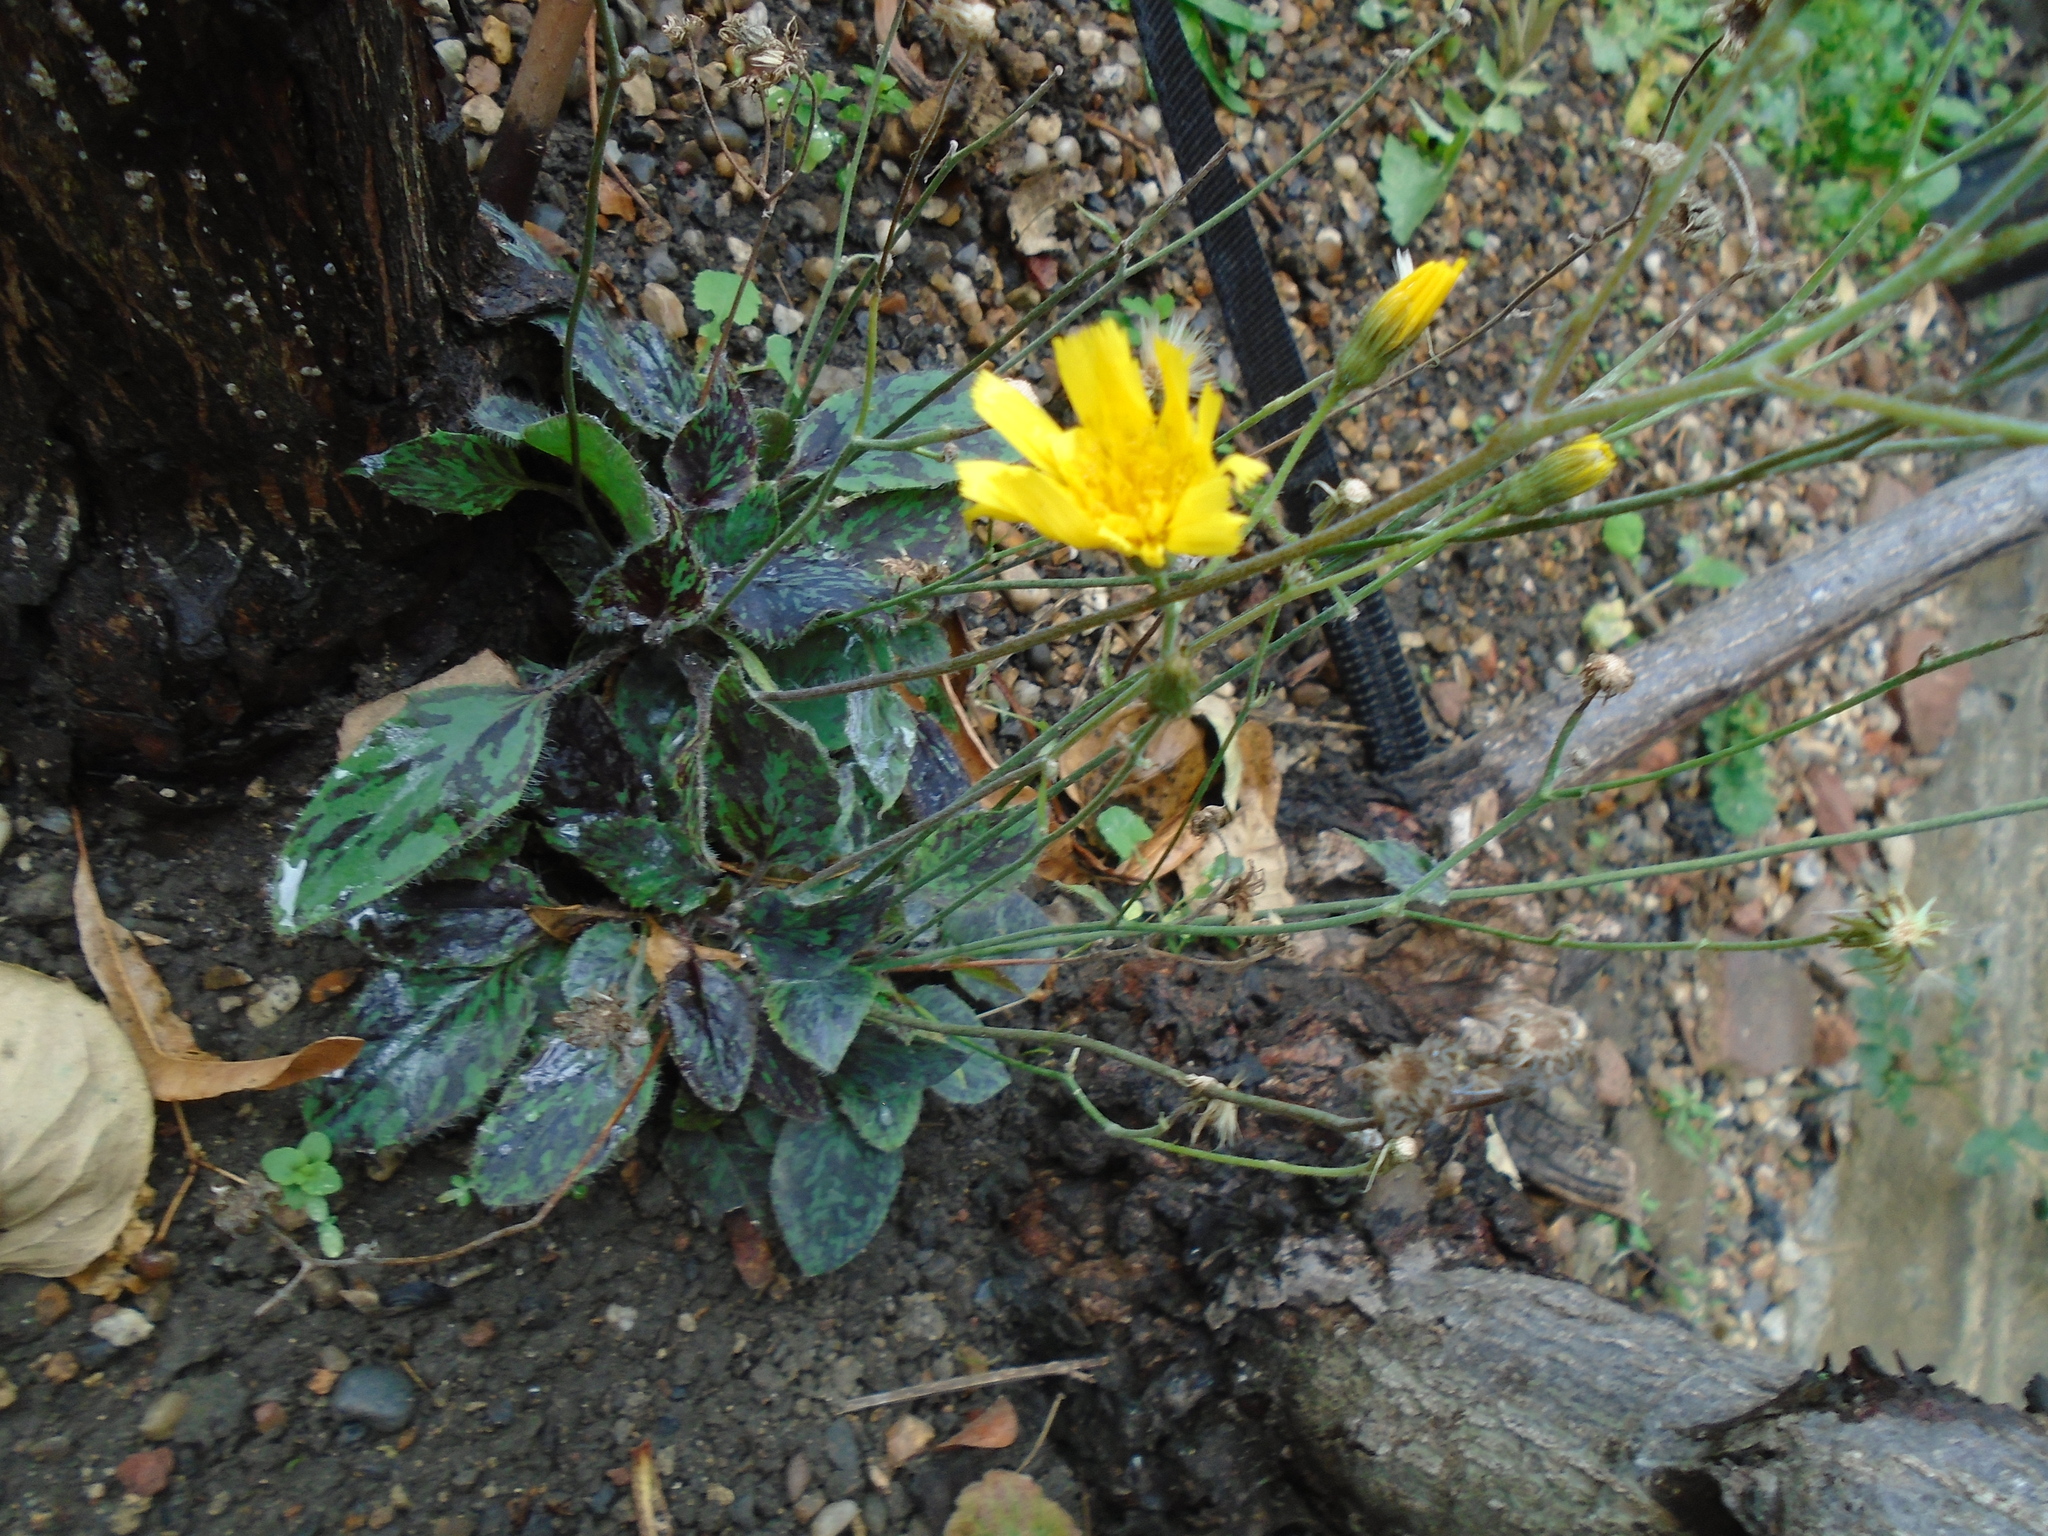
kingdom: Plantae
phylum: Tracheophyta
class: Magnoliopsida
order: Asterales
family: Asteraceae
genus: Hieracium
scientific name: Hieracium maculatum
